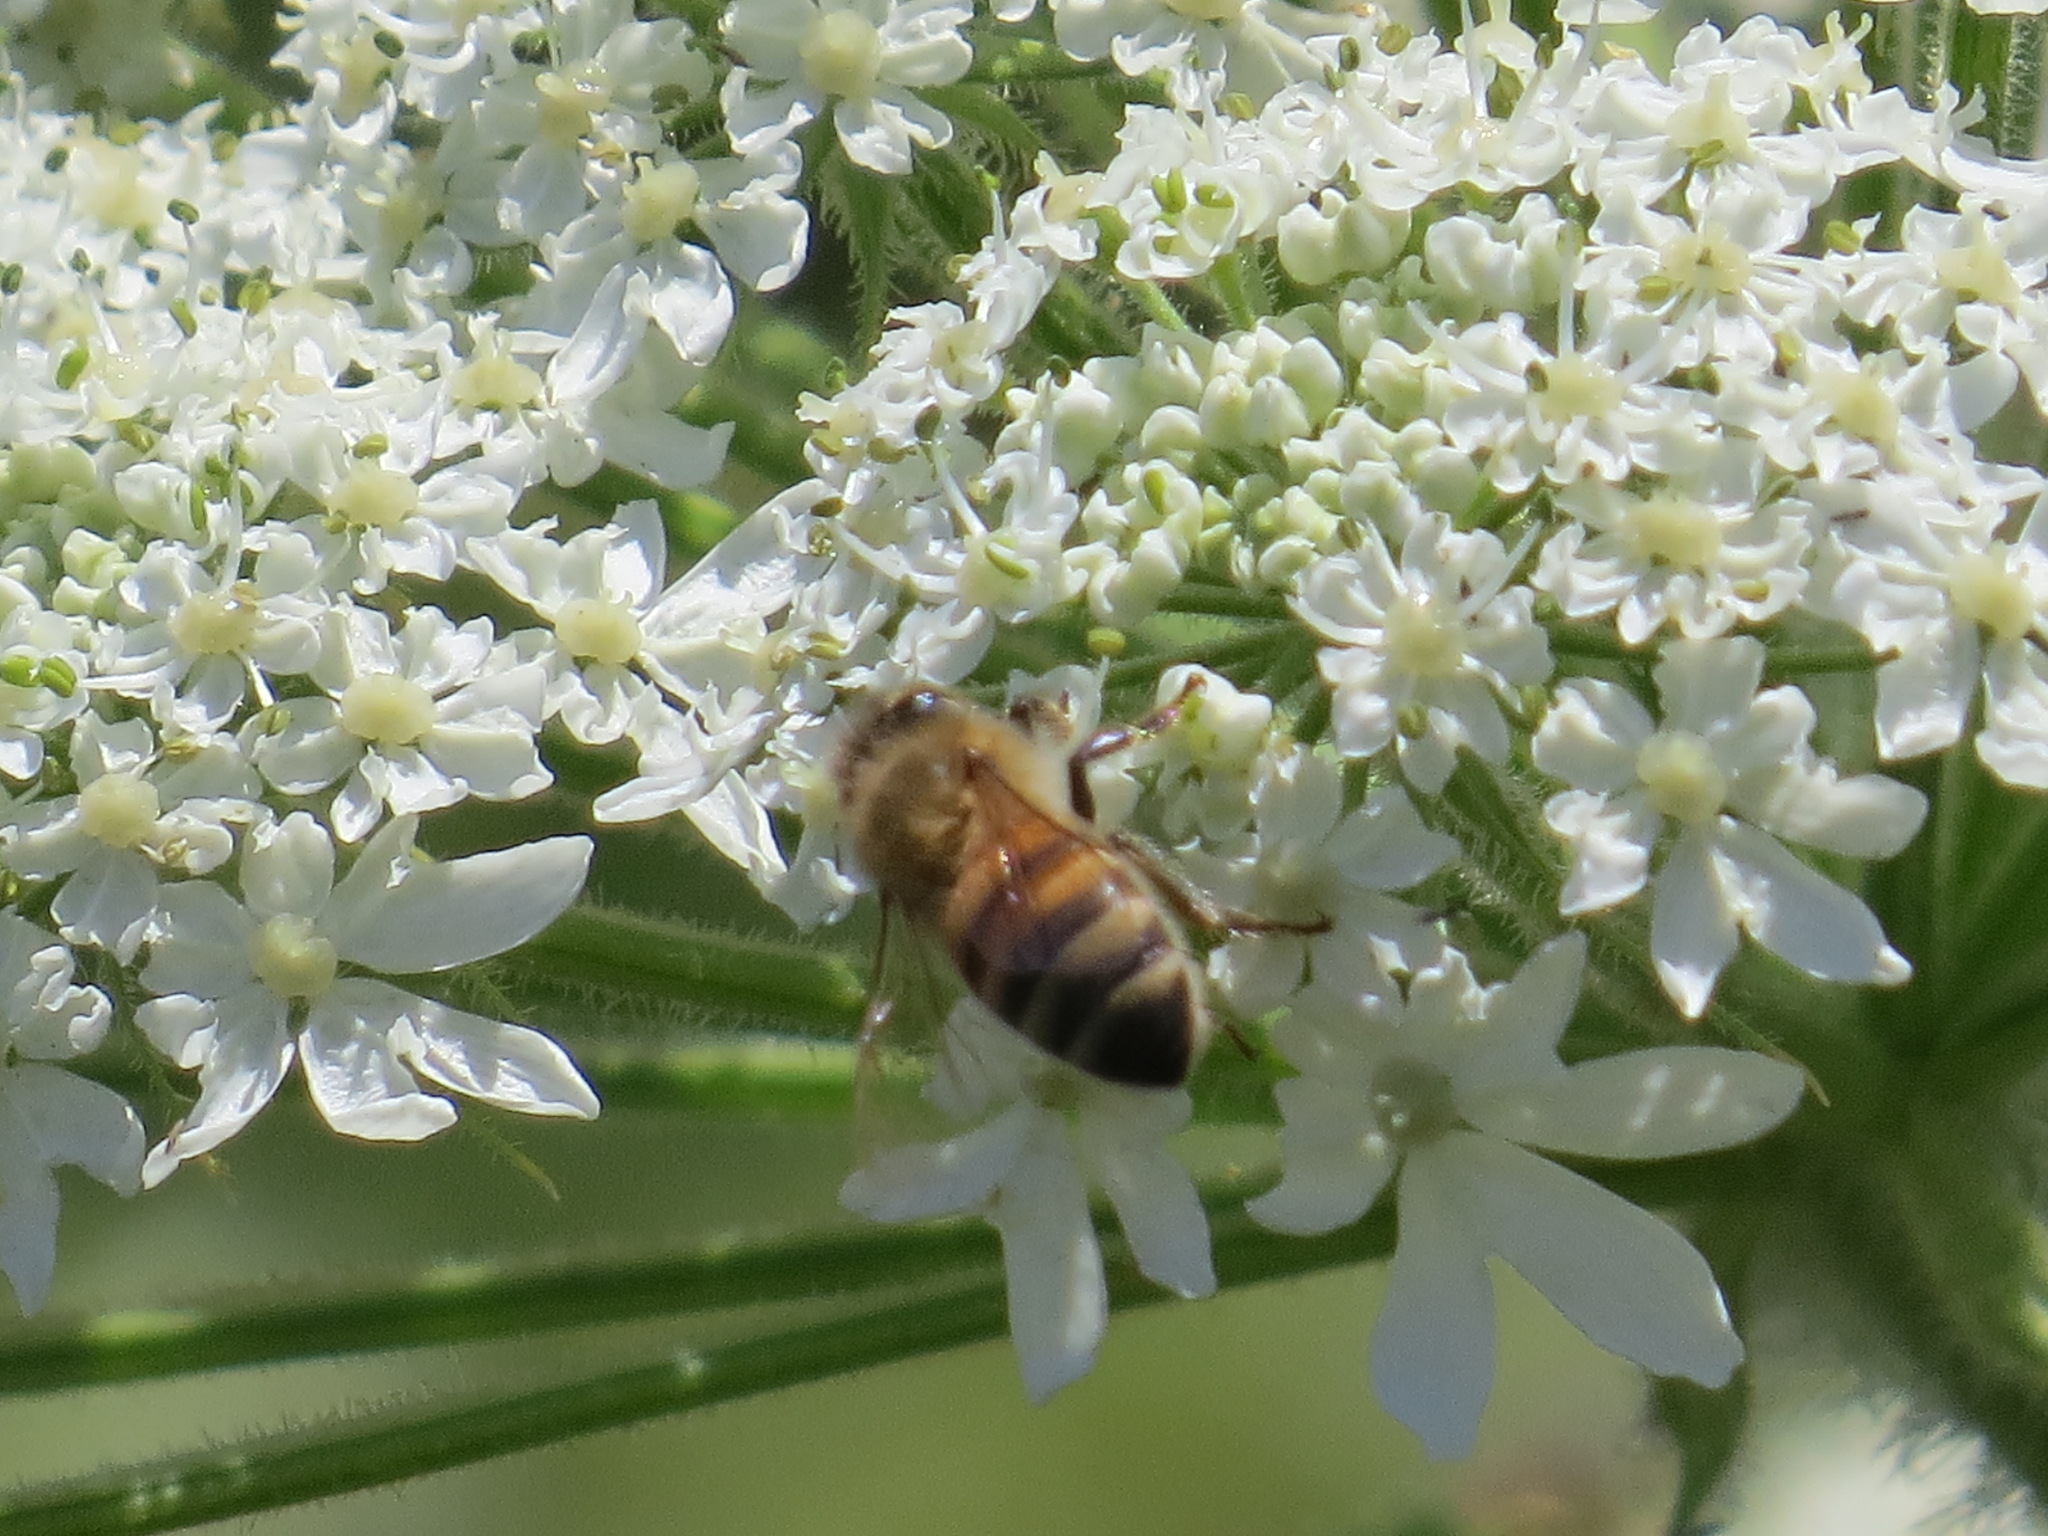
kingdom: Animalia
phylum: Arthropoda
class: Insecta
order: Hymenoptera
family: Apidae
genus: Apis
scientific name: Apis mellifera
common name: Honey bee
